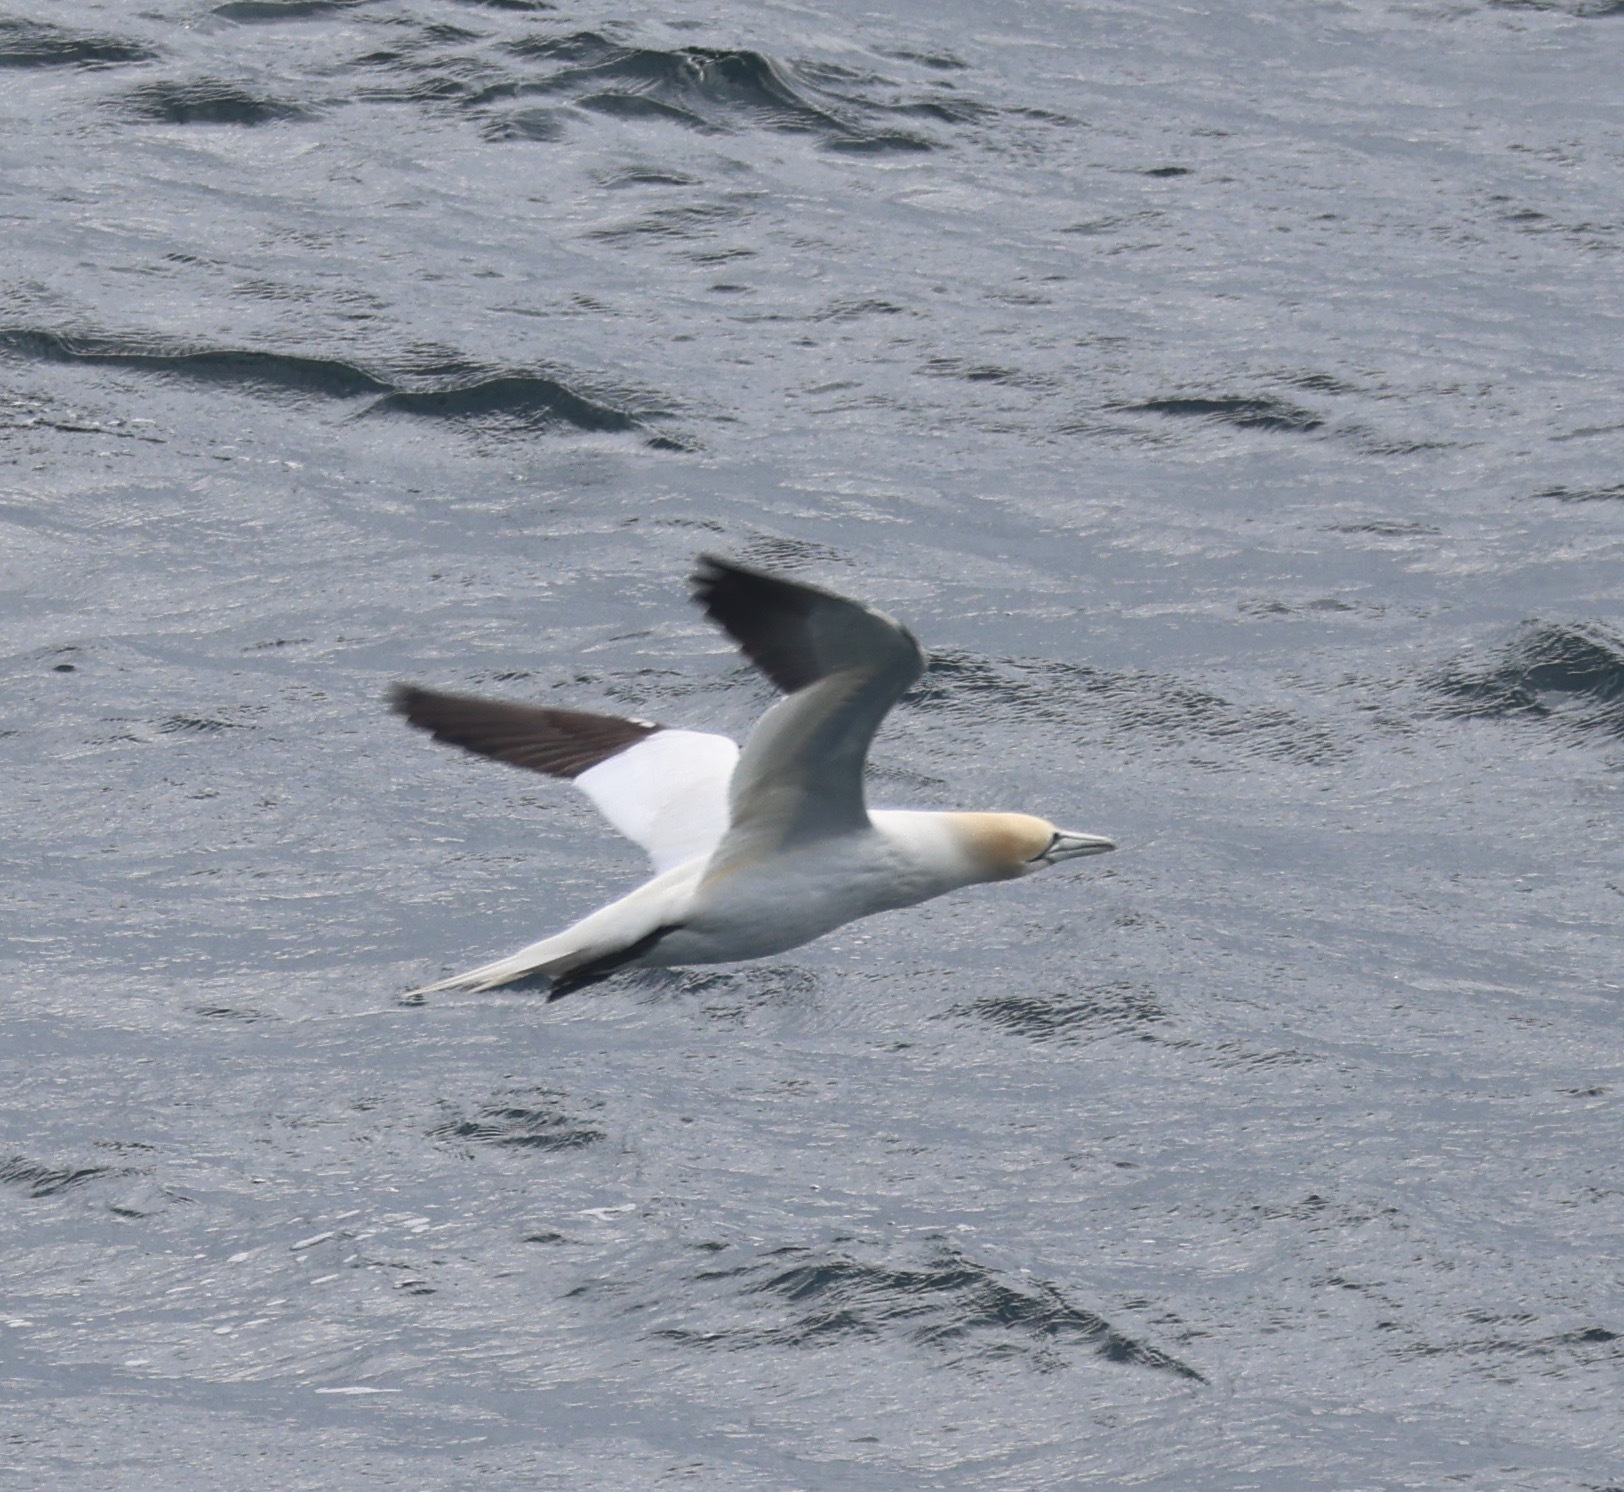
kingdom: Animalia
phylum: Chordata
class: Aves
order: Suliformes
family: Sulidae
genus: Morus
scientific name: Morus bassanus
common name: Northern gannet
